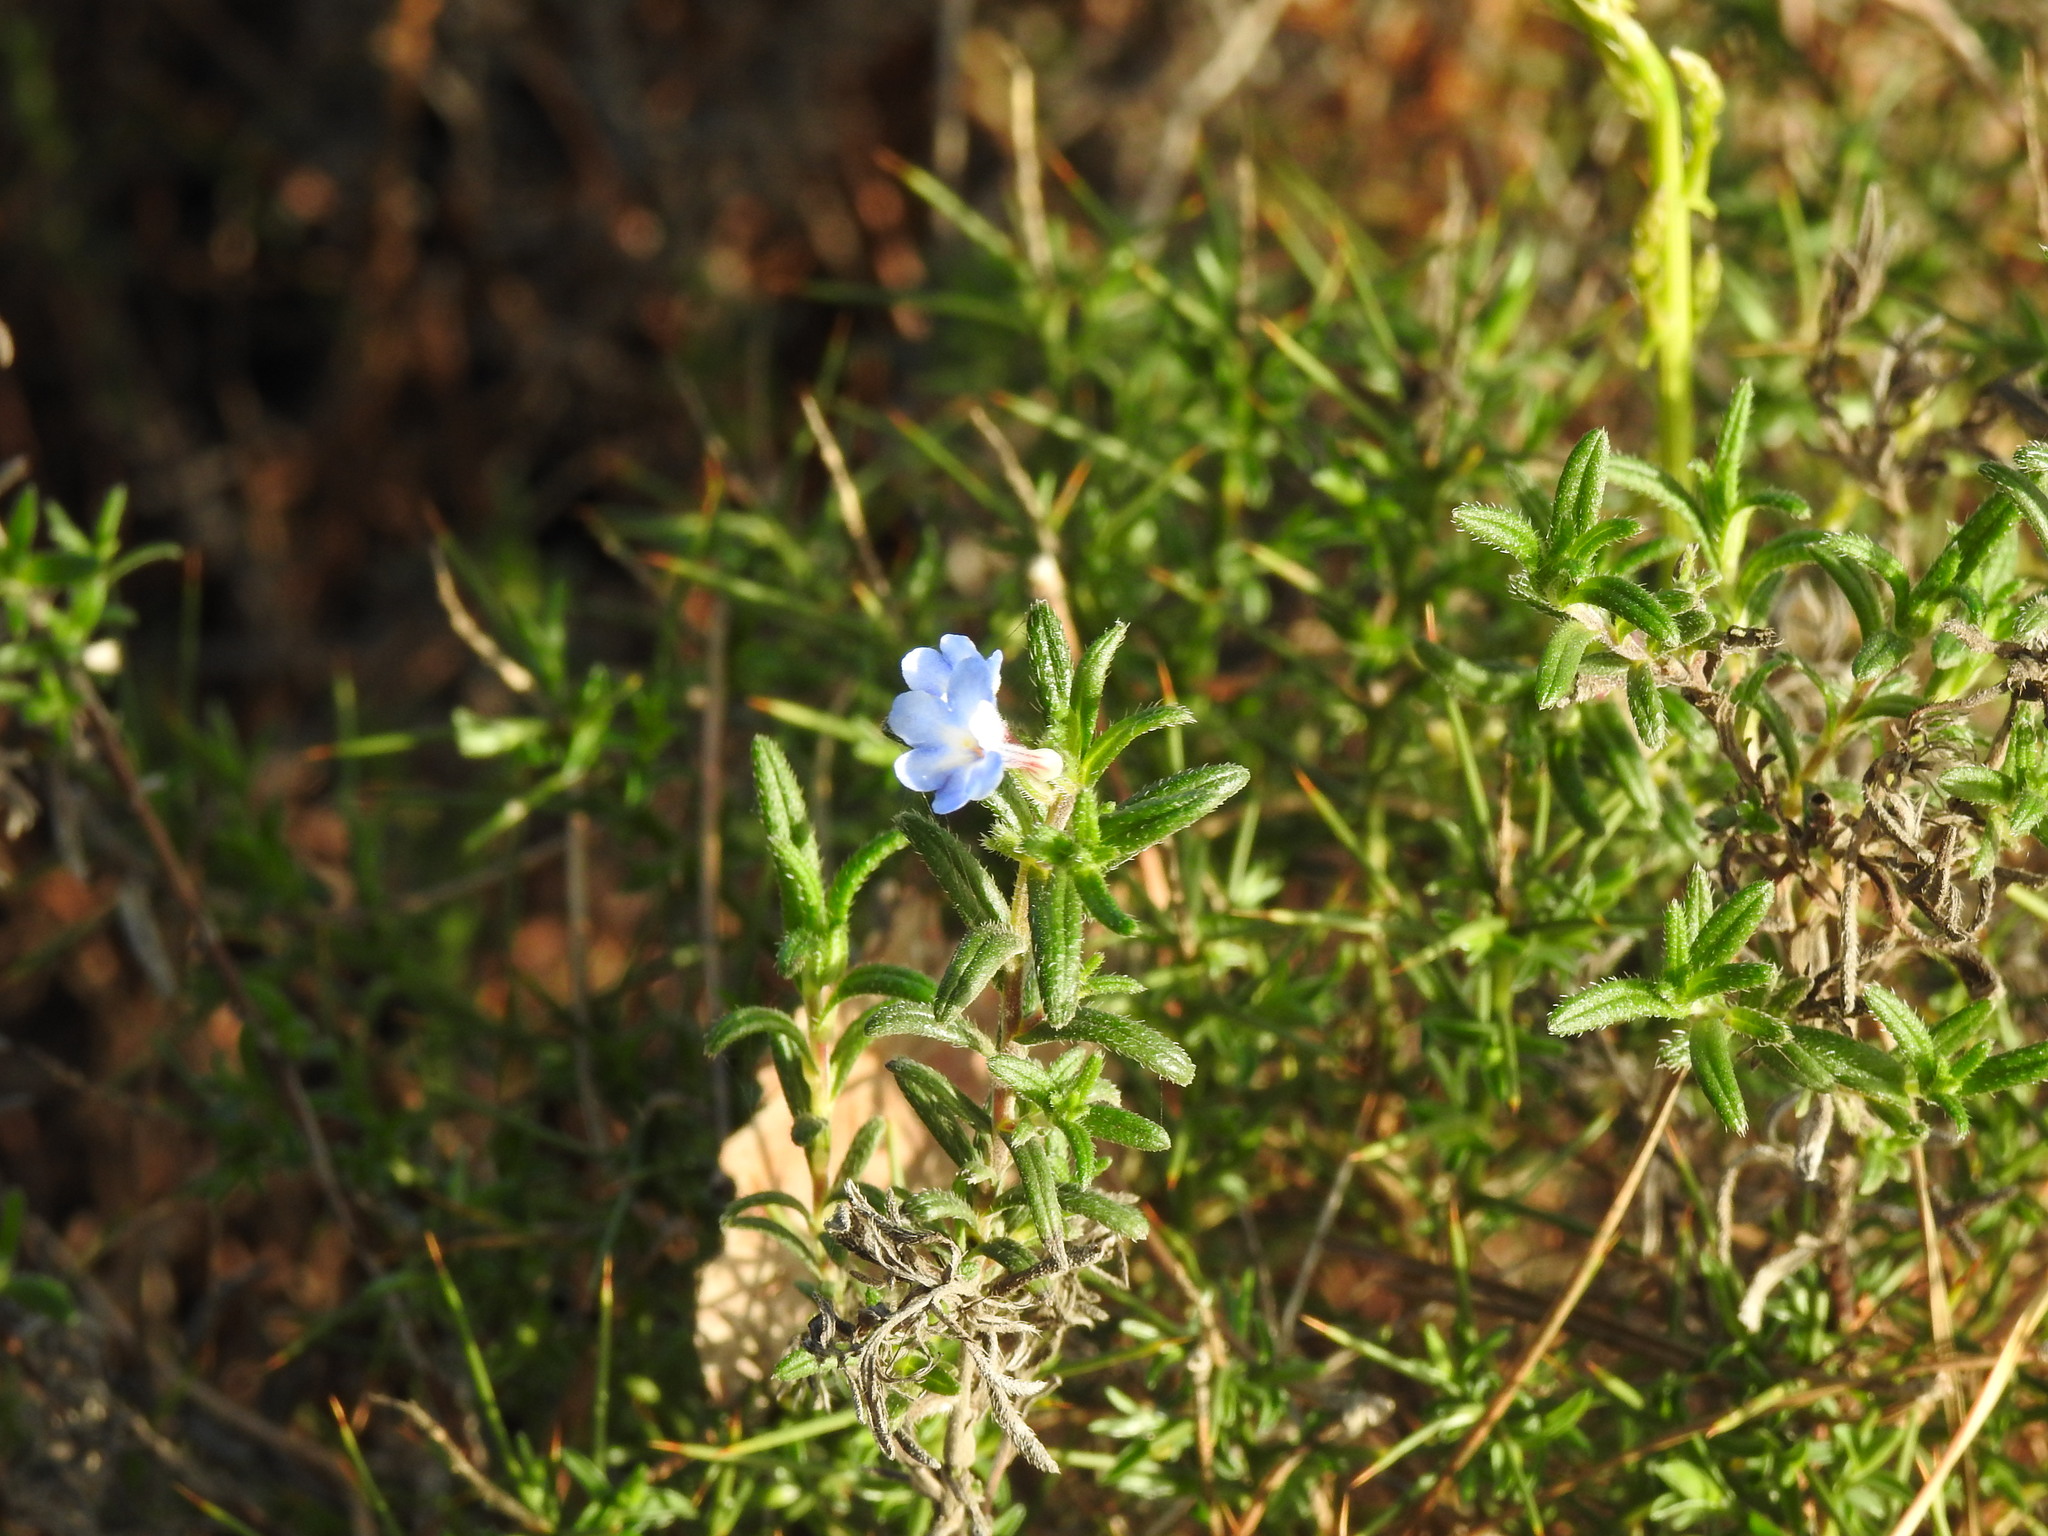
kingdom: Plantae
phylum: Tracheophyta
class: Magnoliopsida
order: Boraginales
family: Boraginaceae
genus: Glandora
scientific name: Glandora prostrata
